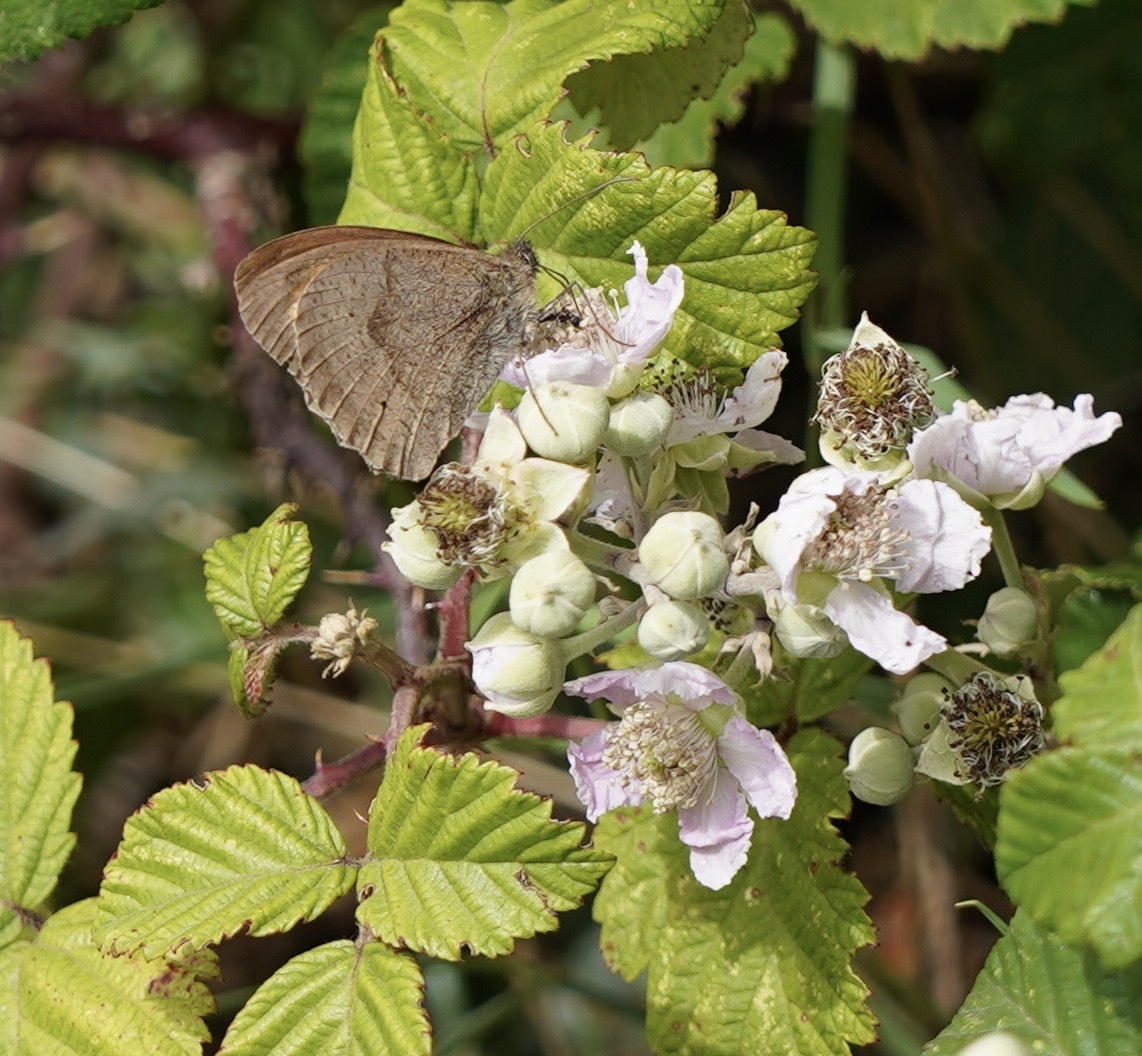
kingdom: Animalia
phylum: Arthropoda
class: Insecta
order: Lepidoptera
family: Nymphalidae
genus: Maniola
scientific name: Maniola jurtina
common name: Meadow brown
